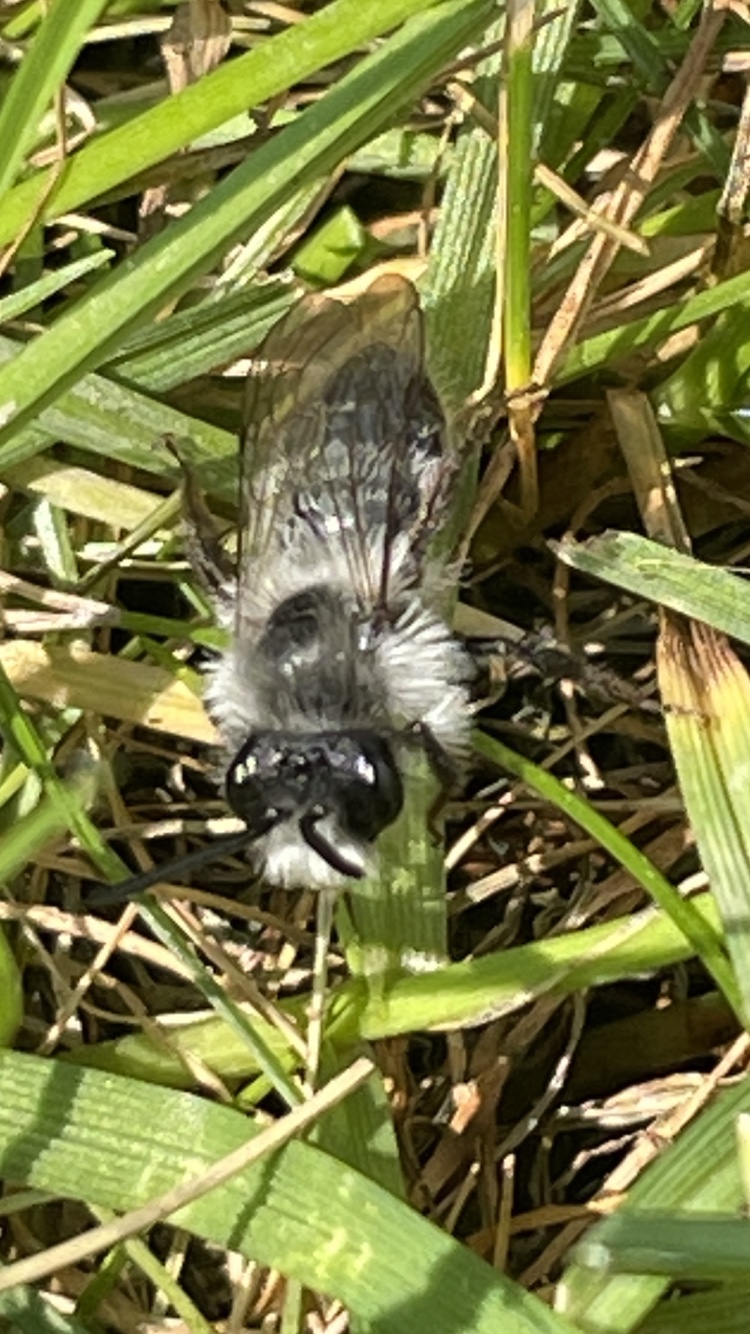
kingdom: Animalia
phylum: Arthropoda
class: Insecta
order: Hymenoptera
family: Andrenidae
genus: Andrena
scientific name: Andrena cineraria
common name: Ashy mining bee
